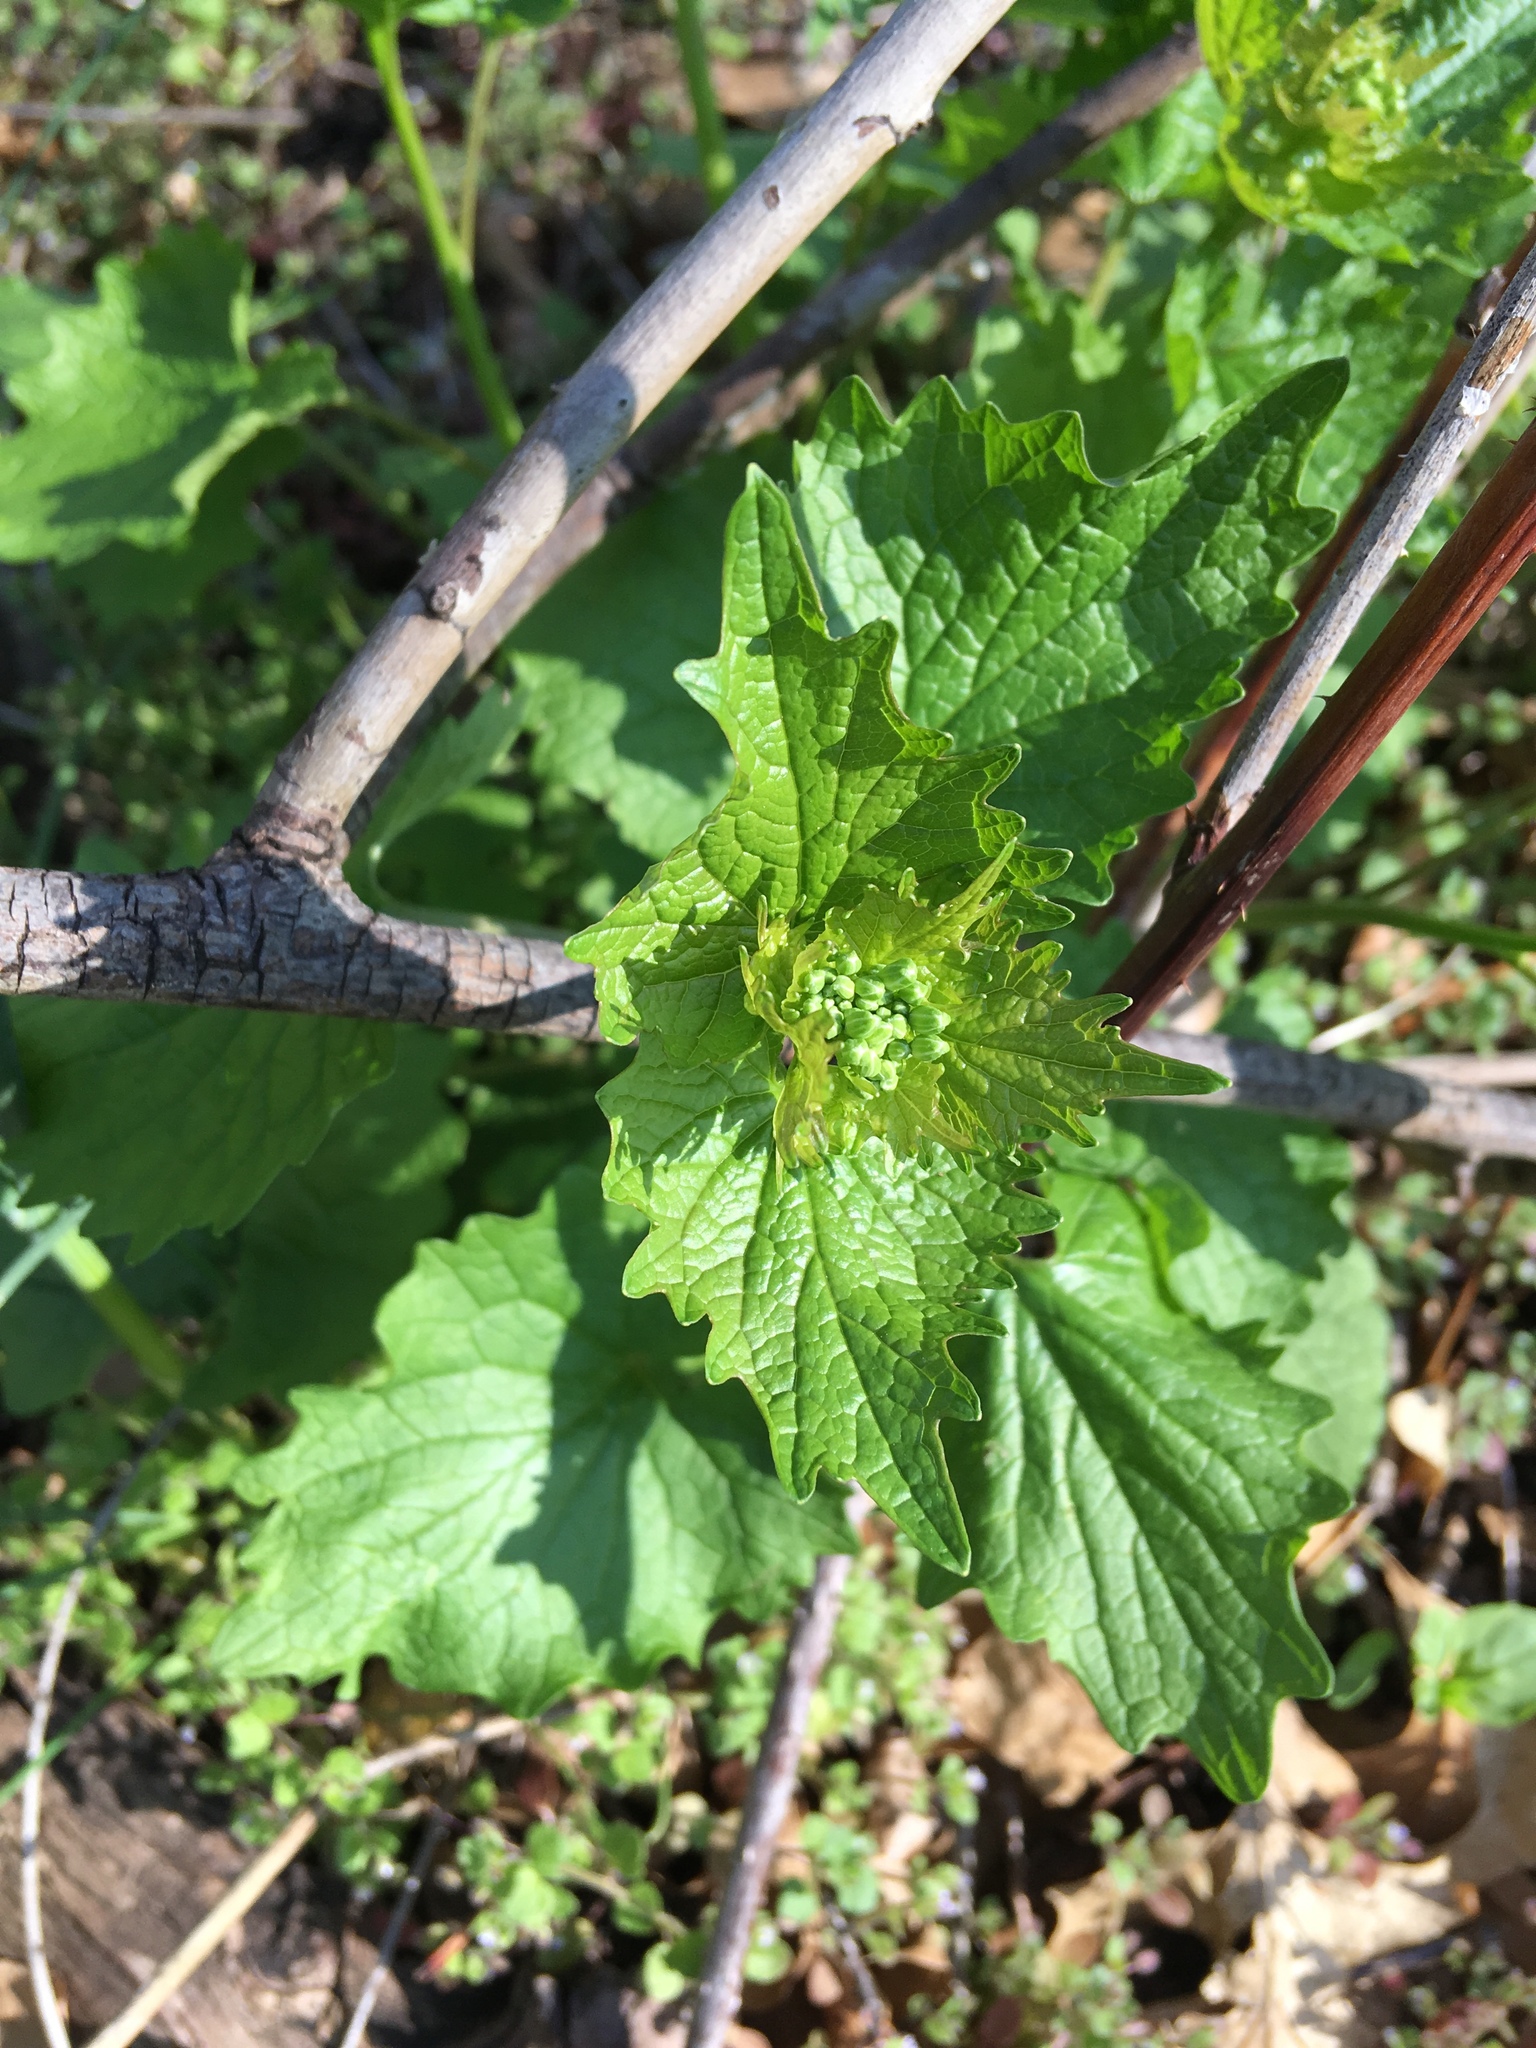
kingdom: Plantae
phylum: Tracheophyta
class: Magnoliopsida
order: Brassicales
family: Brassicaceae
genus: Alliaria
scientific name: Alliaria petiolata
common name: Garlic mustard
